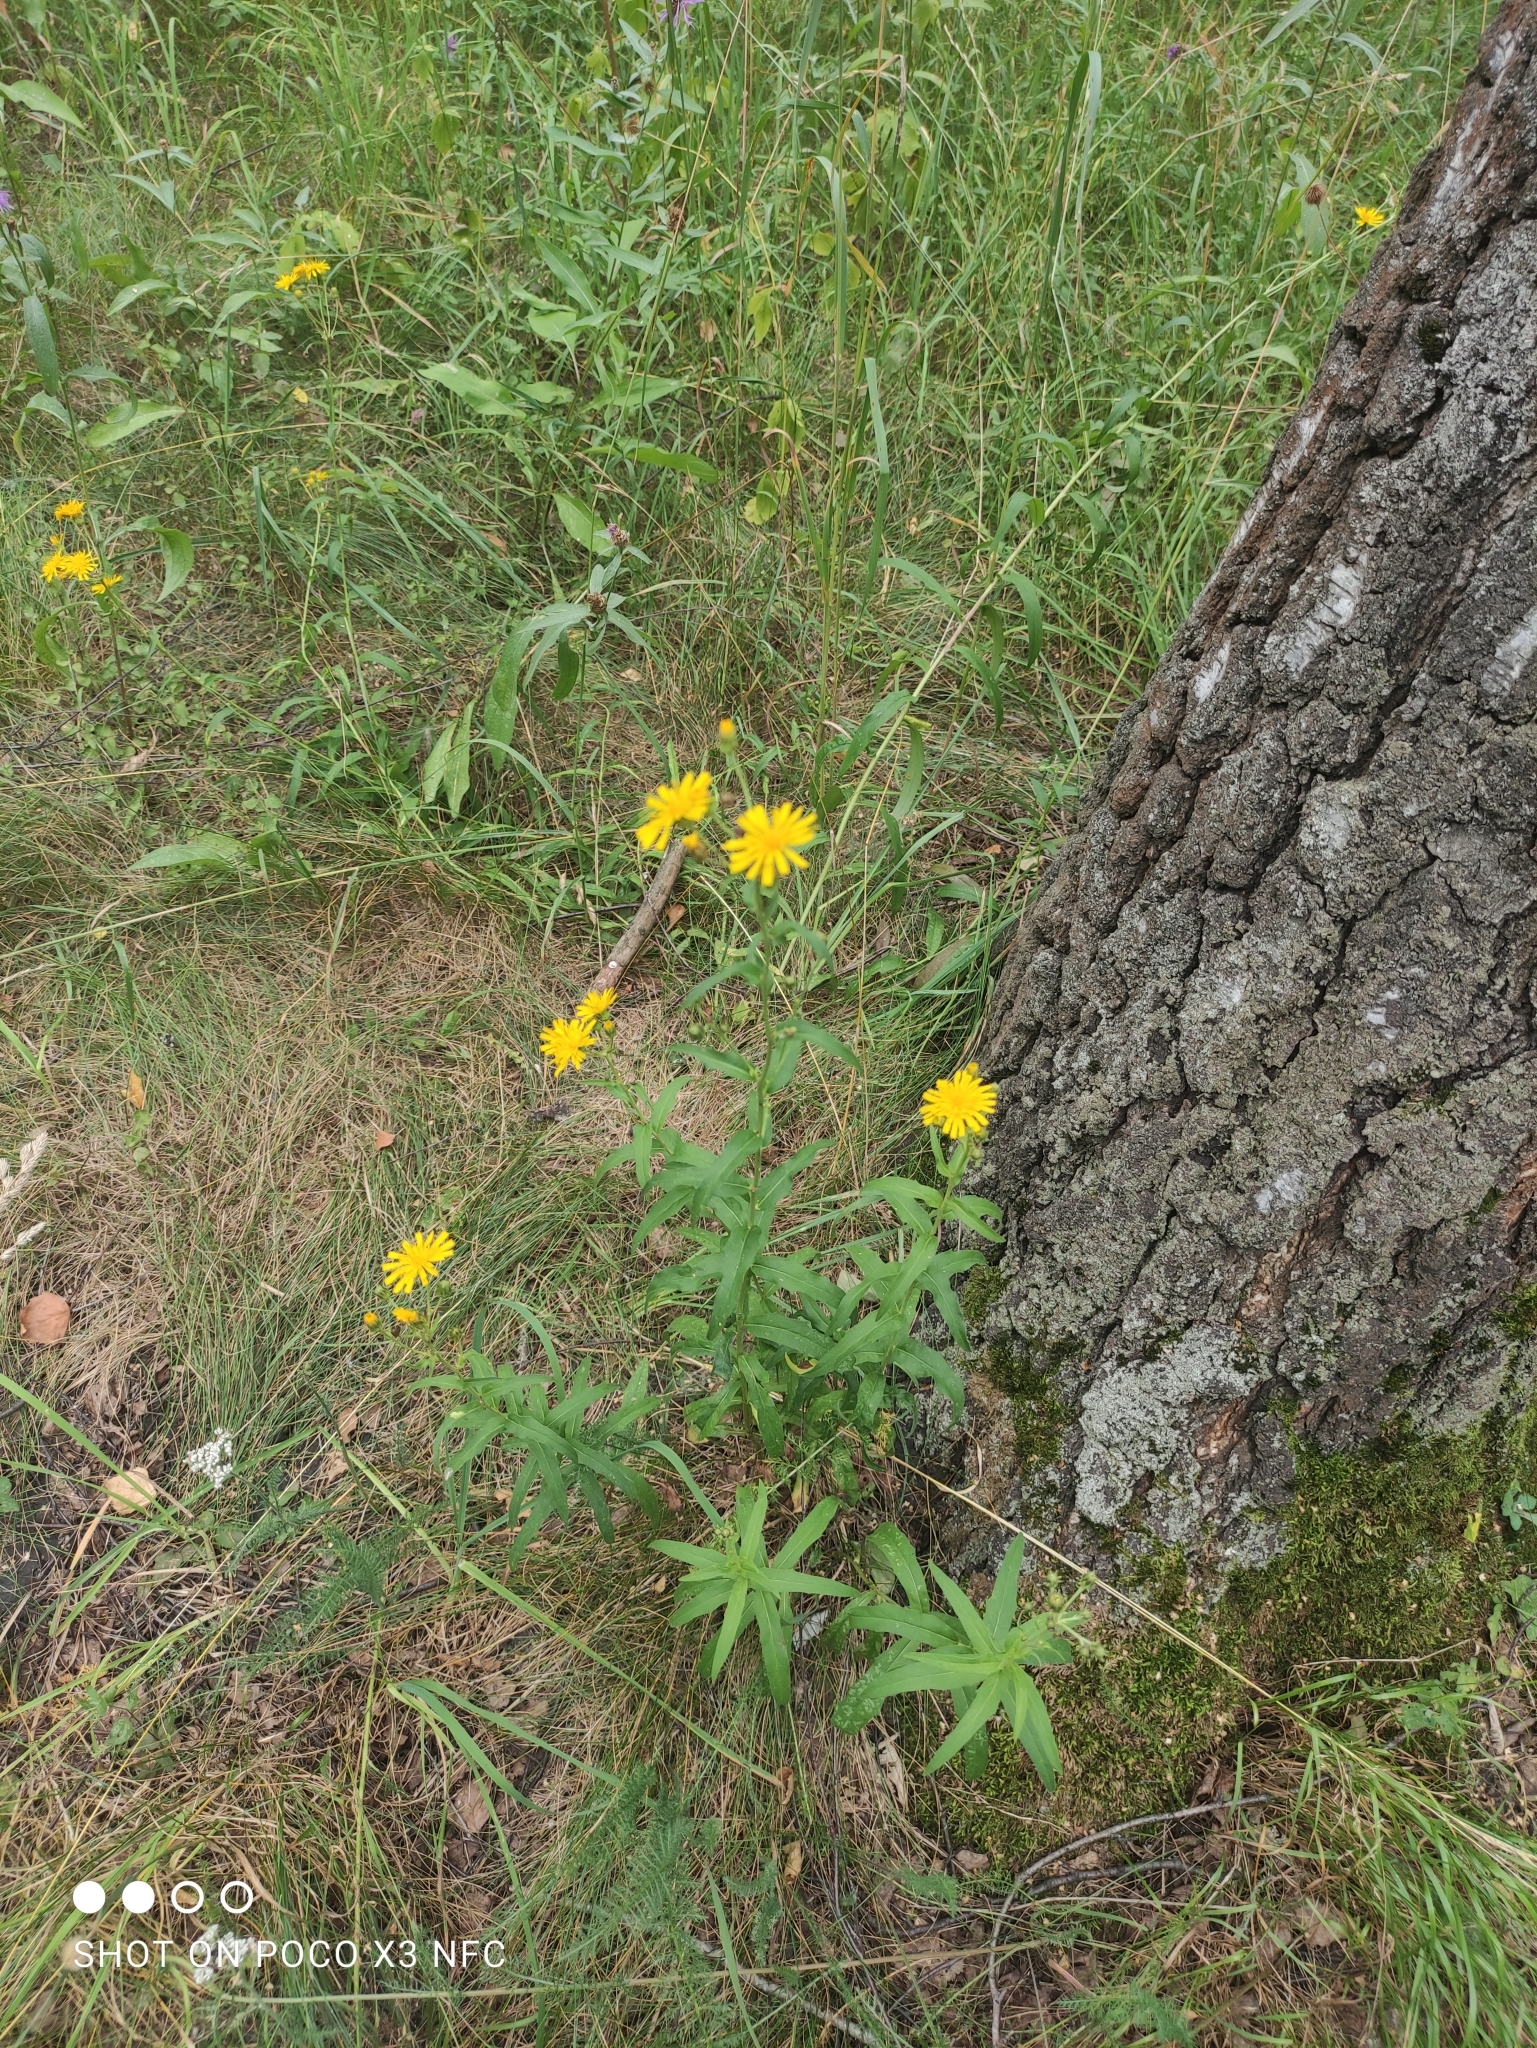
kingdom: Plantae
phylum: Tracheophyta
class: Magnoliopsida
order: Asterales
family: Asteraceae
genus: Hieracium
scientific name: Hieracium umbellatum
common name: Northern hawkweed
